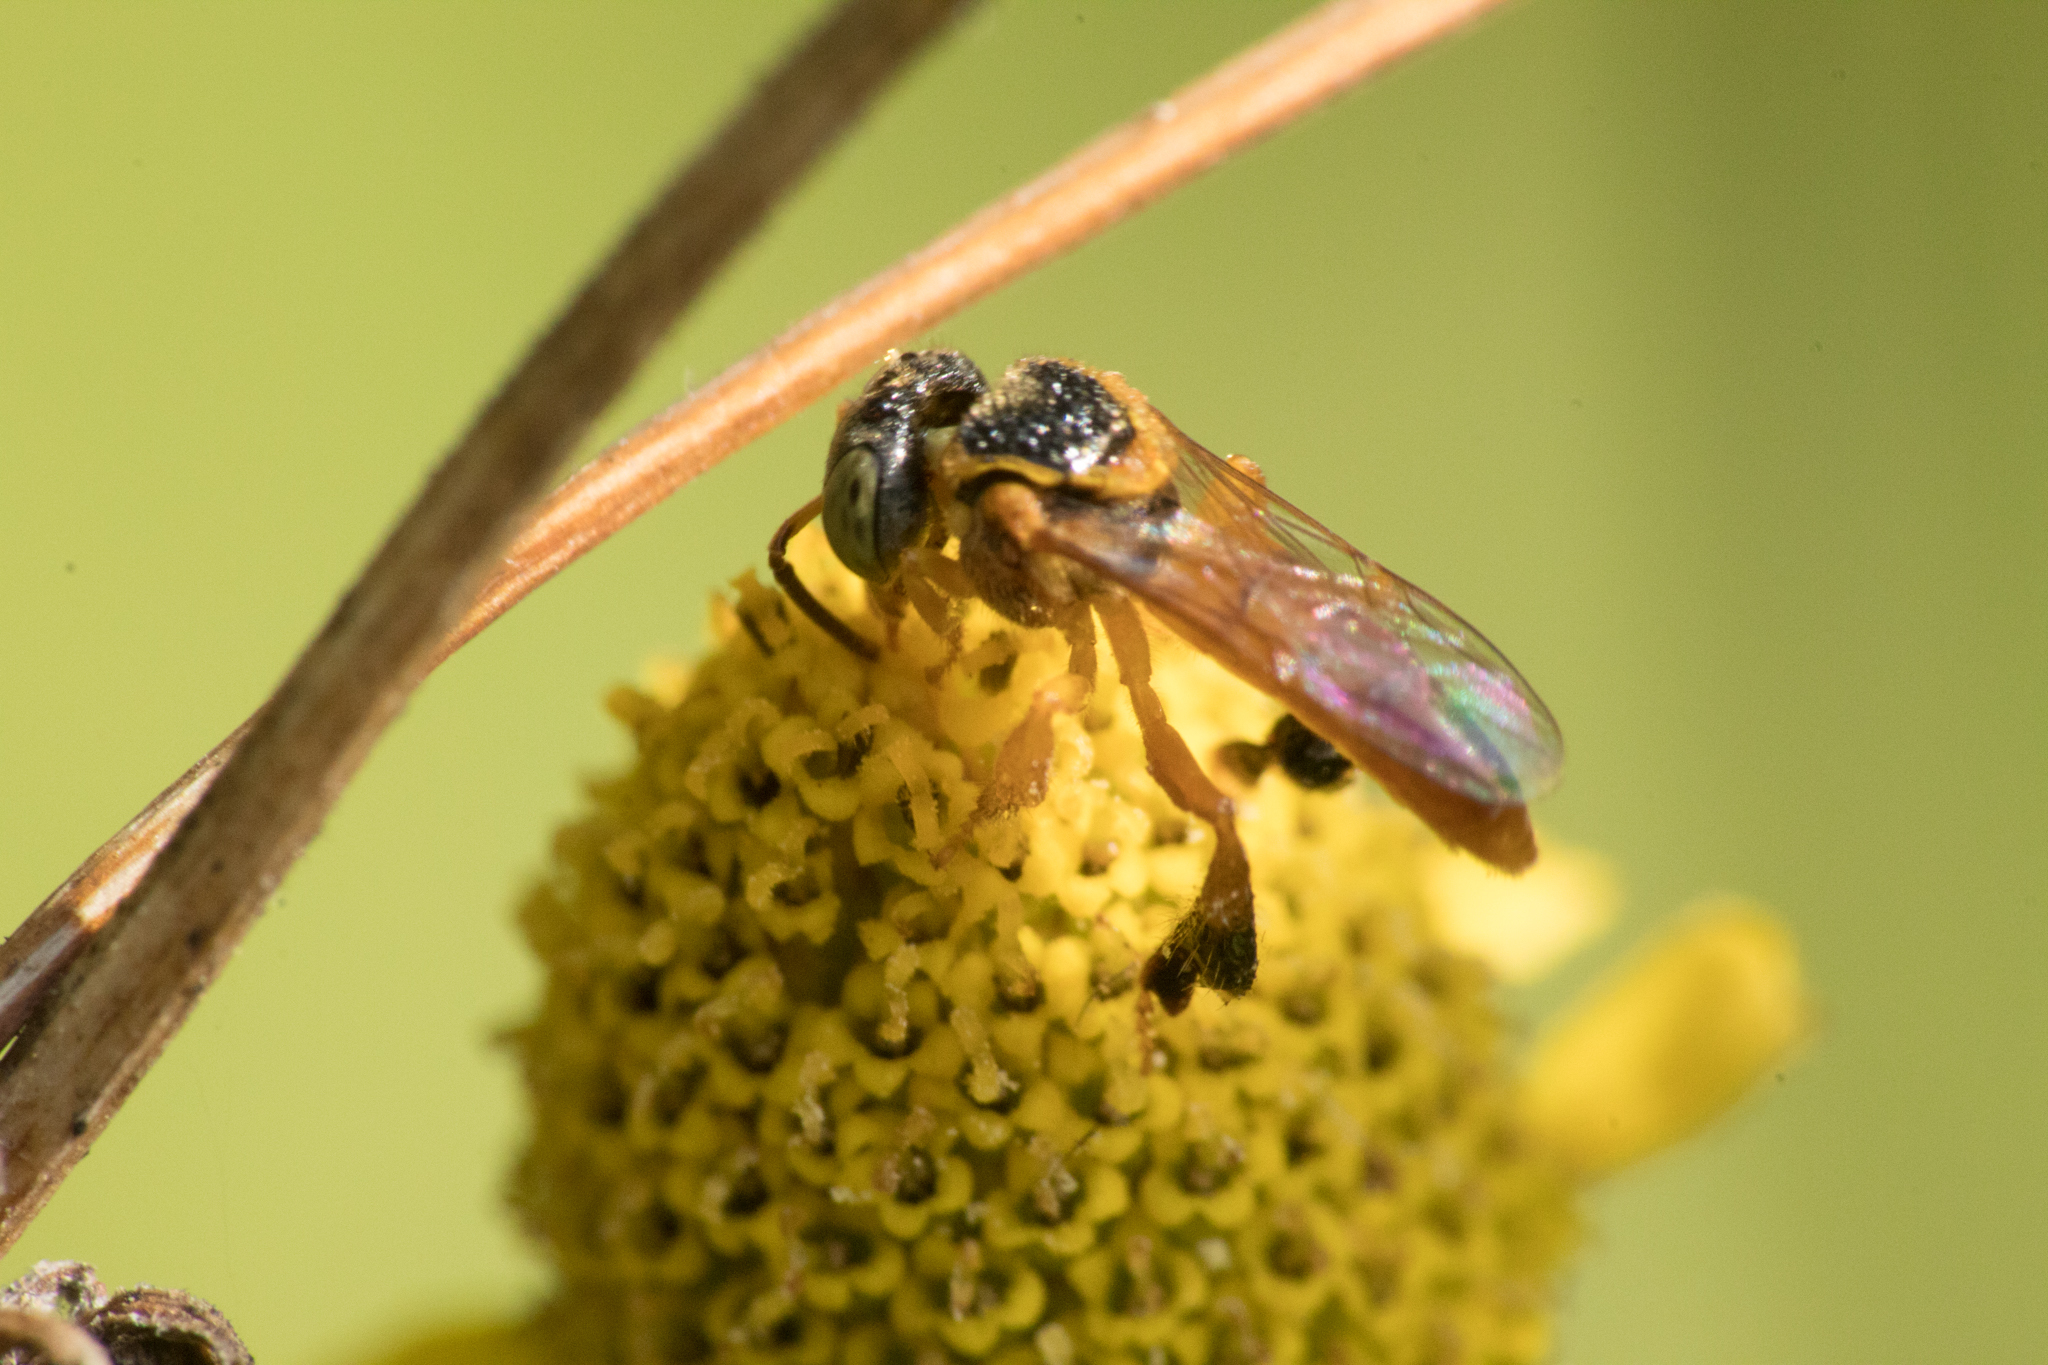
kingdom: Animalia
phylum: Arthropoda
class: Insecta
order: Hymenoptera
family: Apidae
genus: Tetragonisca
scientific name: Tetragonisca fiebrigi
